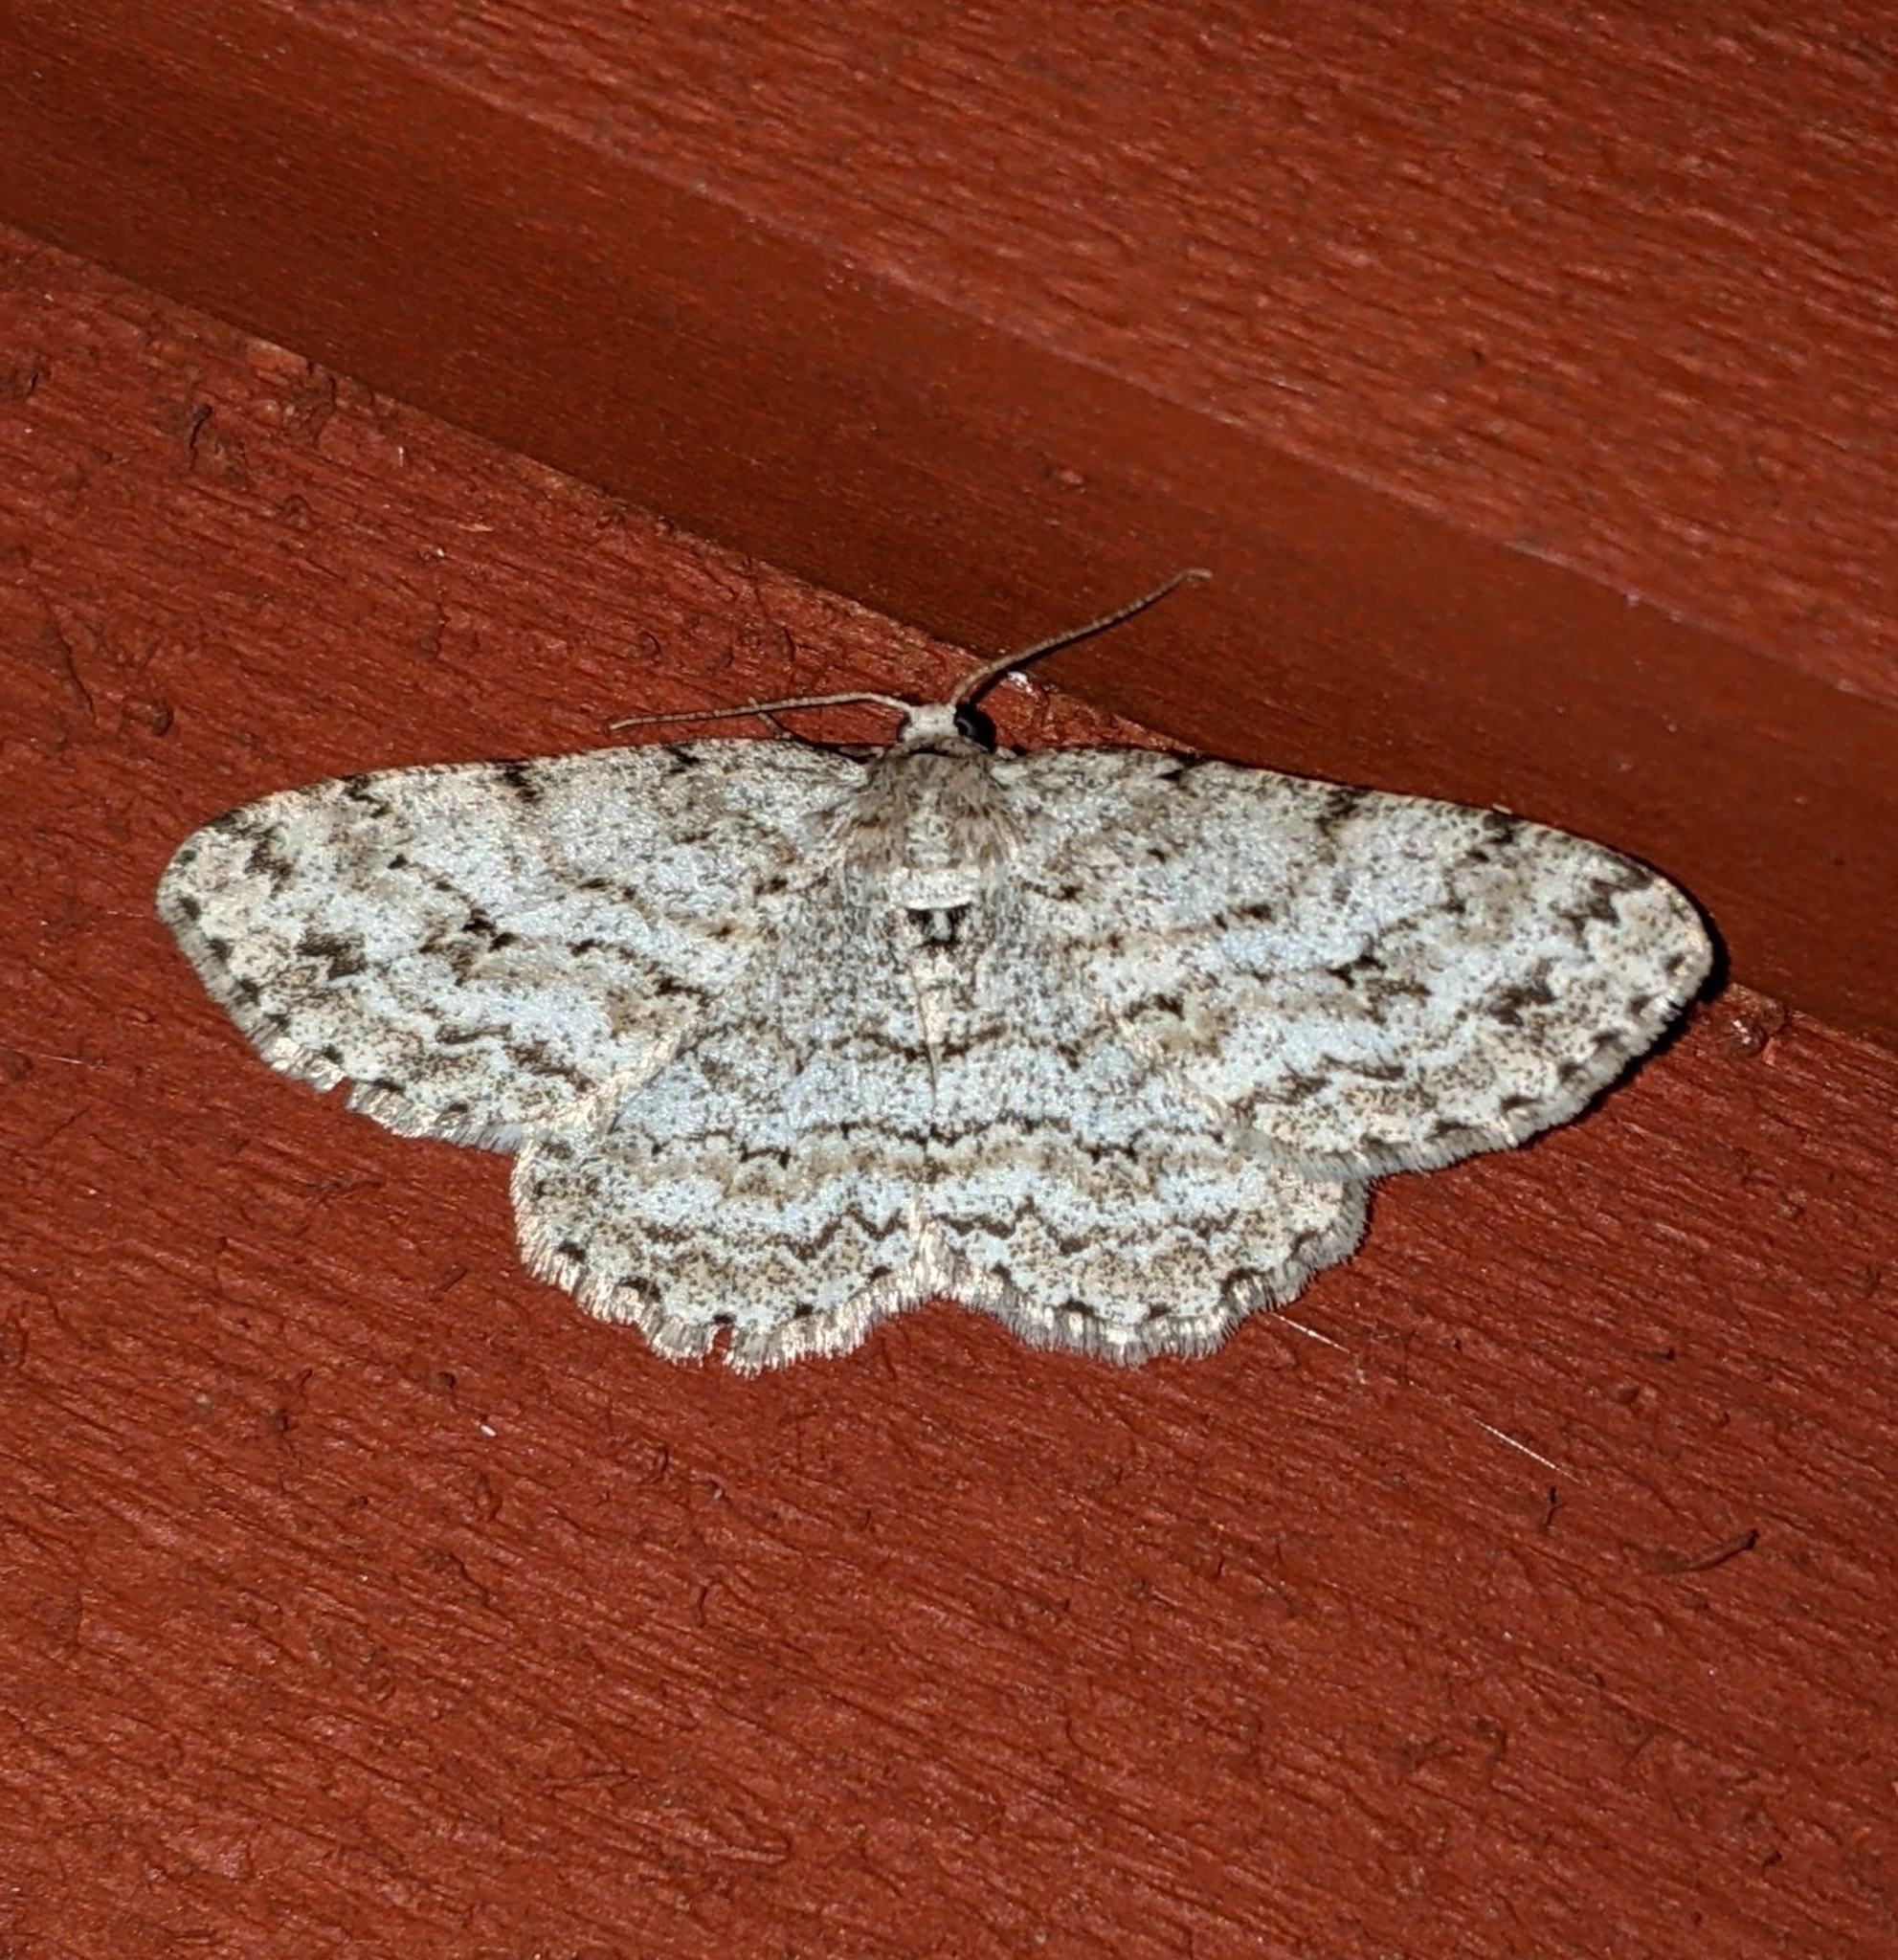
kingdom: Animalia
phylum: Arthropoda
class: Insecta
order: Lepidoptera
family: Geometridae
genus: Ectropis
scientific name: Ectropis crepuscularia
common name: Engrailed
